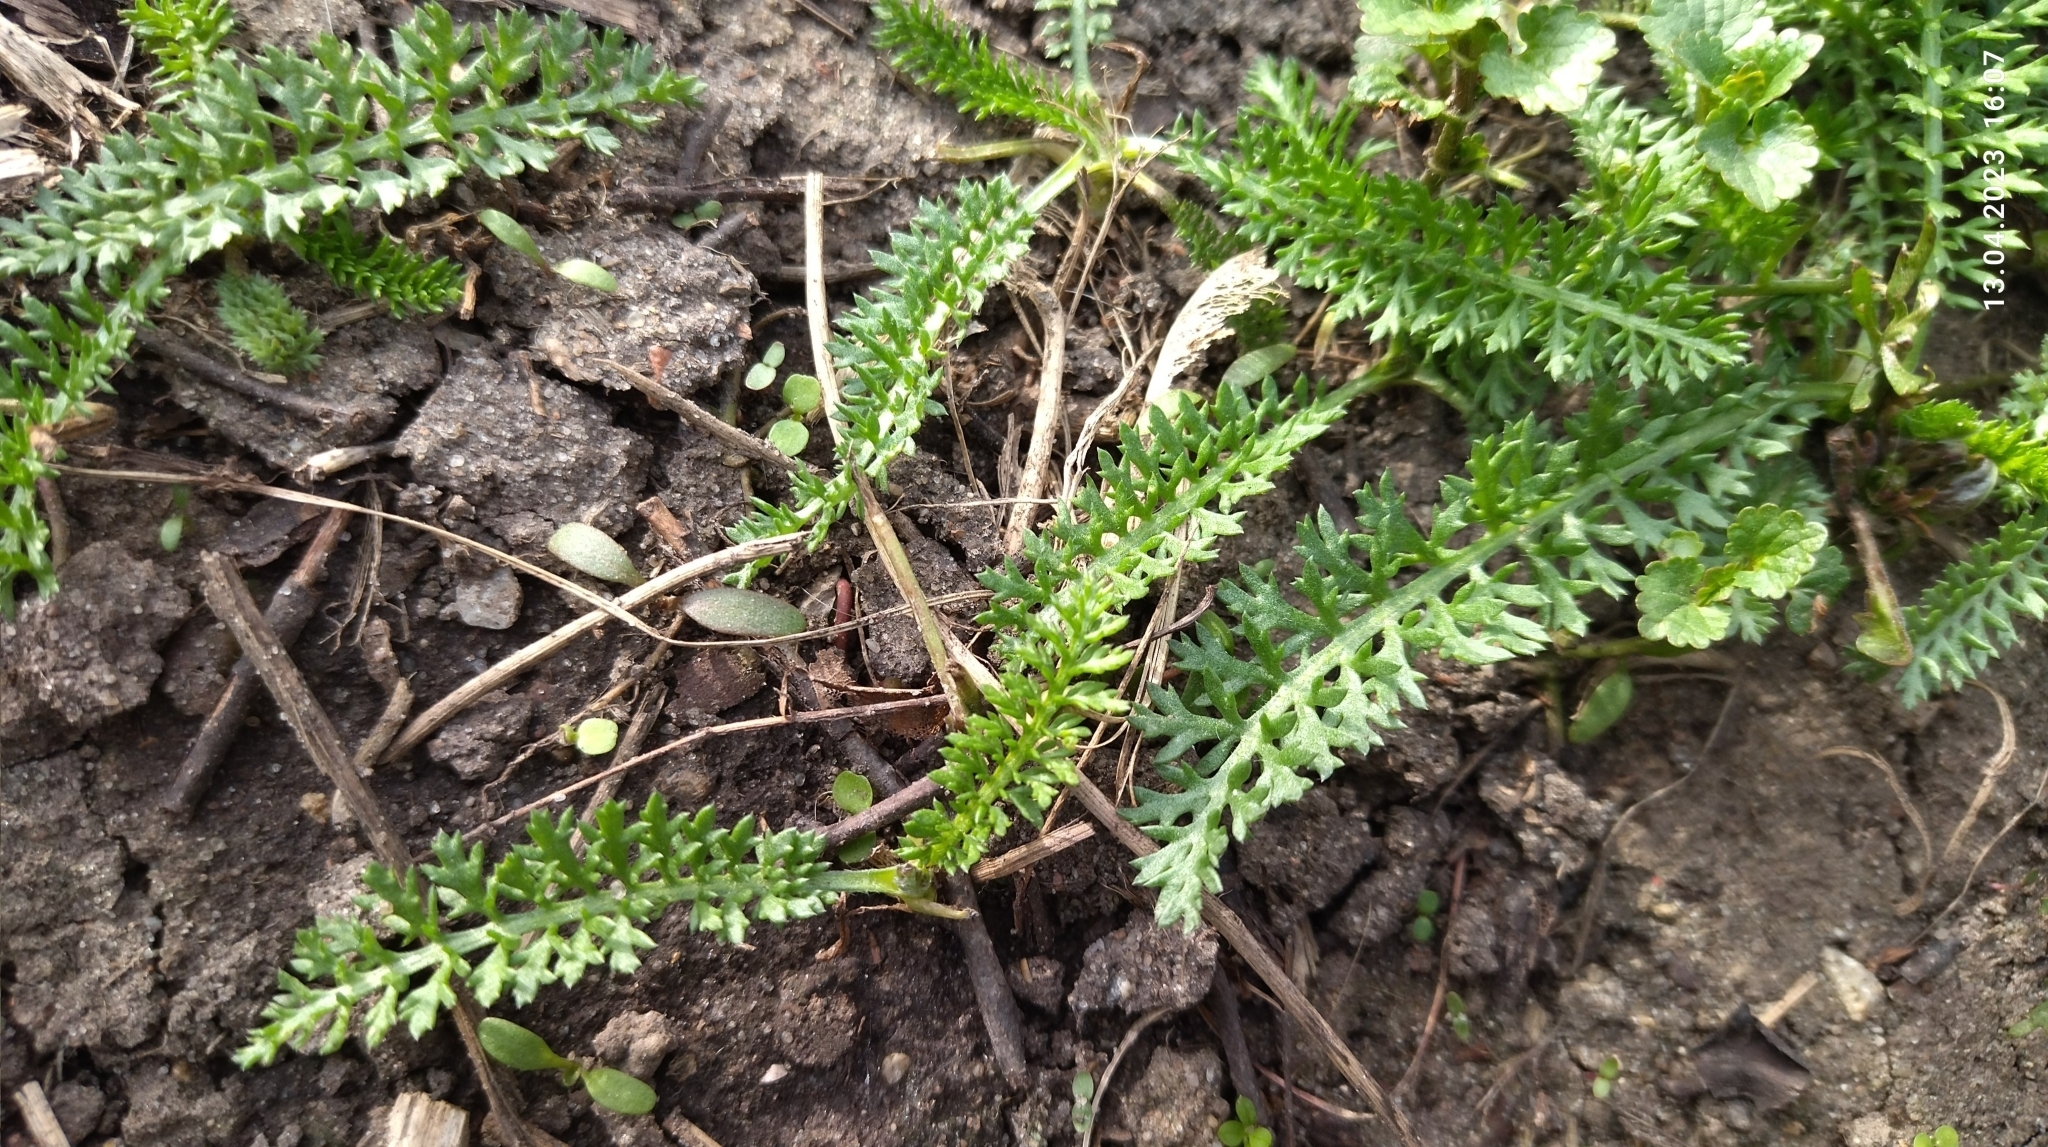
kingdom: Plantae
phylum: Tracheophyta
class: Magnoliopsida
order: Asterales
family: Asteraceae
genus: Achillea
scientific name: Achillea millefolium
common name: Yarrow
